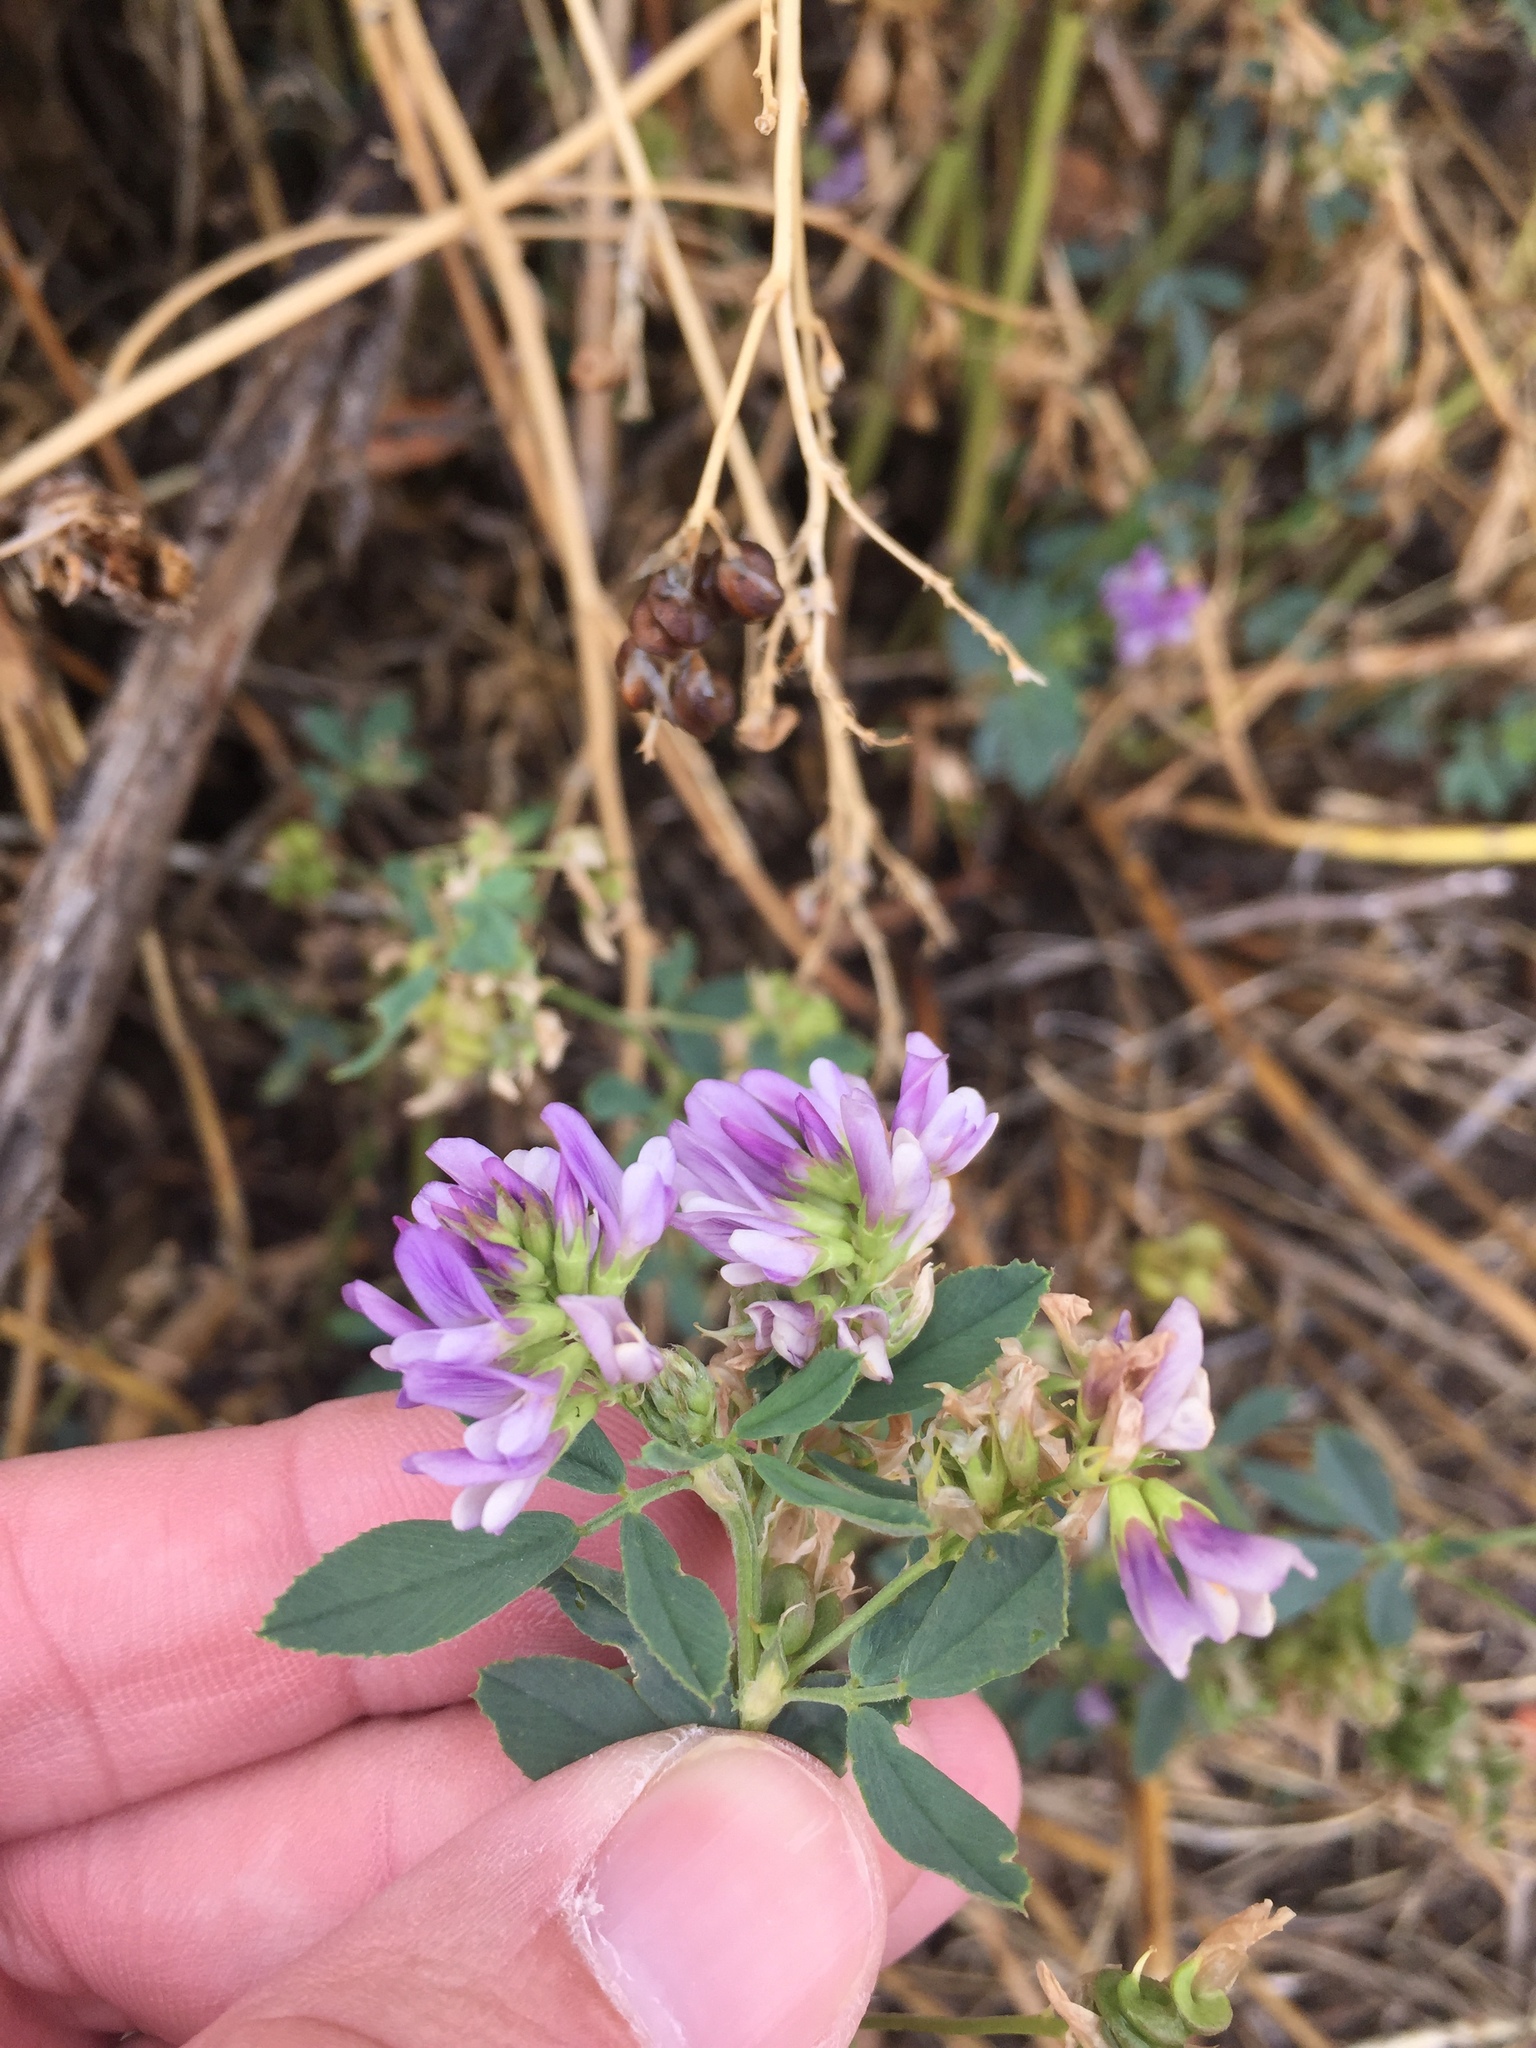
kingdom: Plantae
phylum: Tracheophyta
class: Magnoliopsida
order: Fabales
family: Fabaceae
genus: Medicago
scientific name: Medicago sativa
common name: Alfalfa
